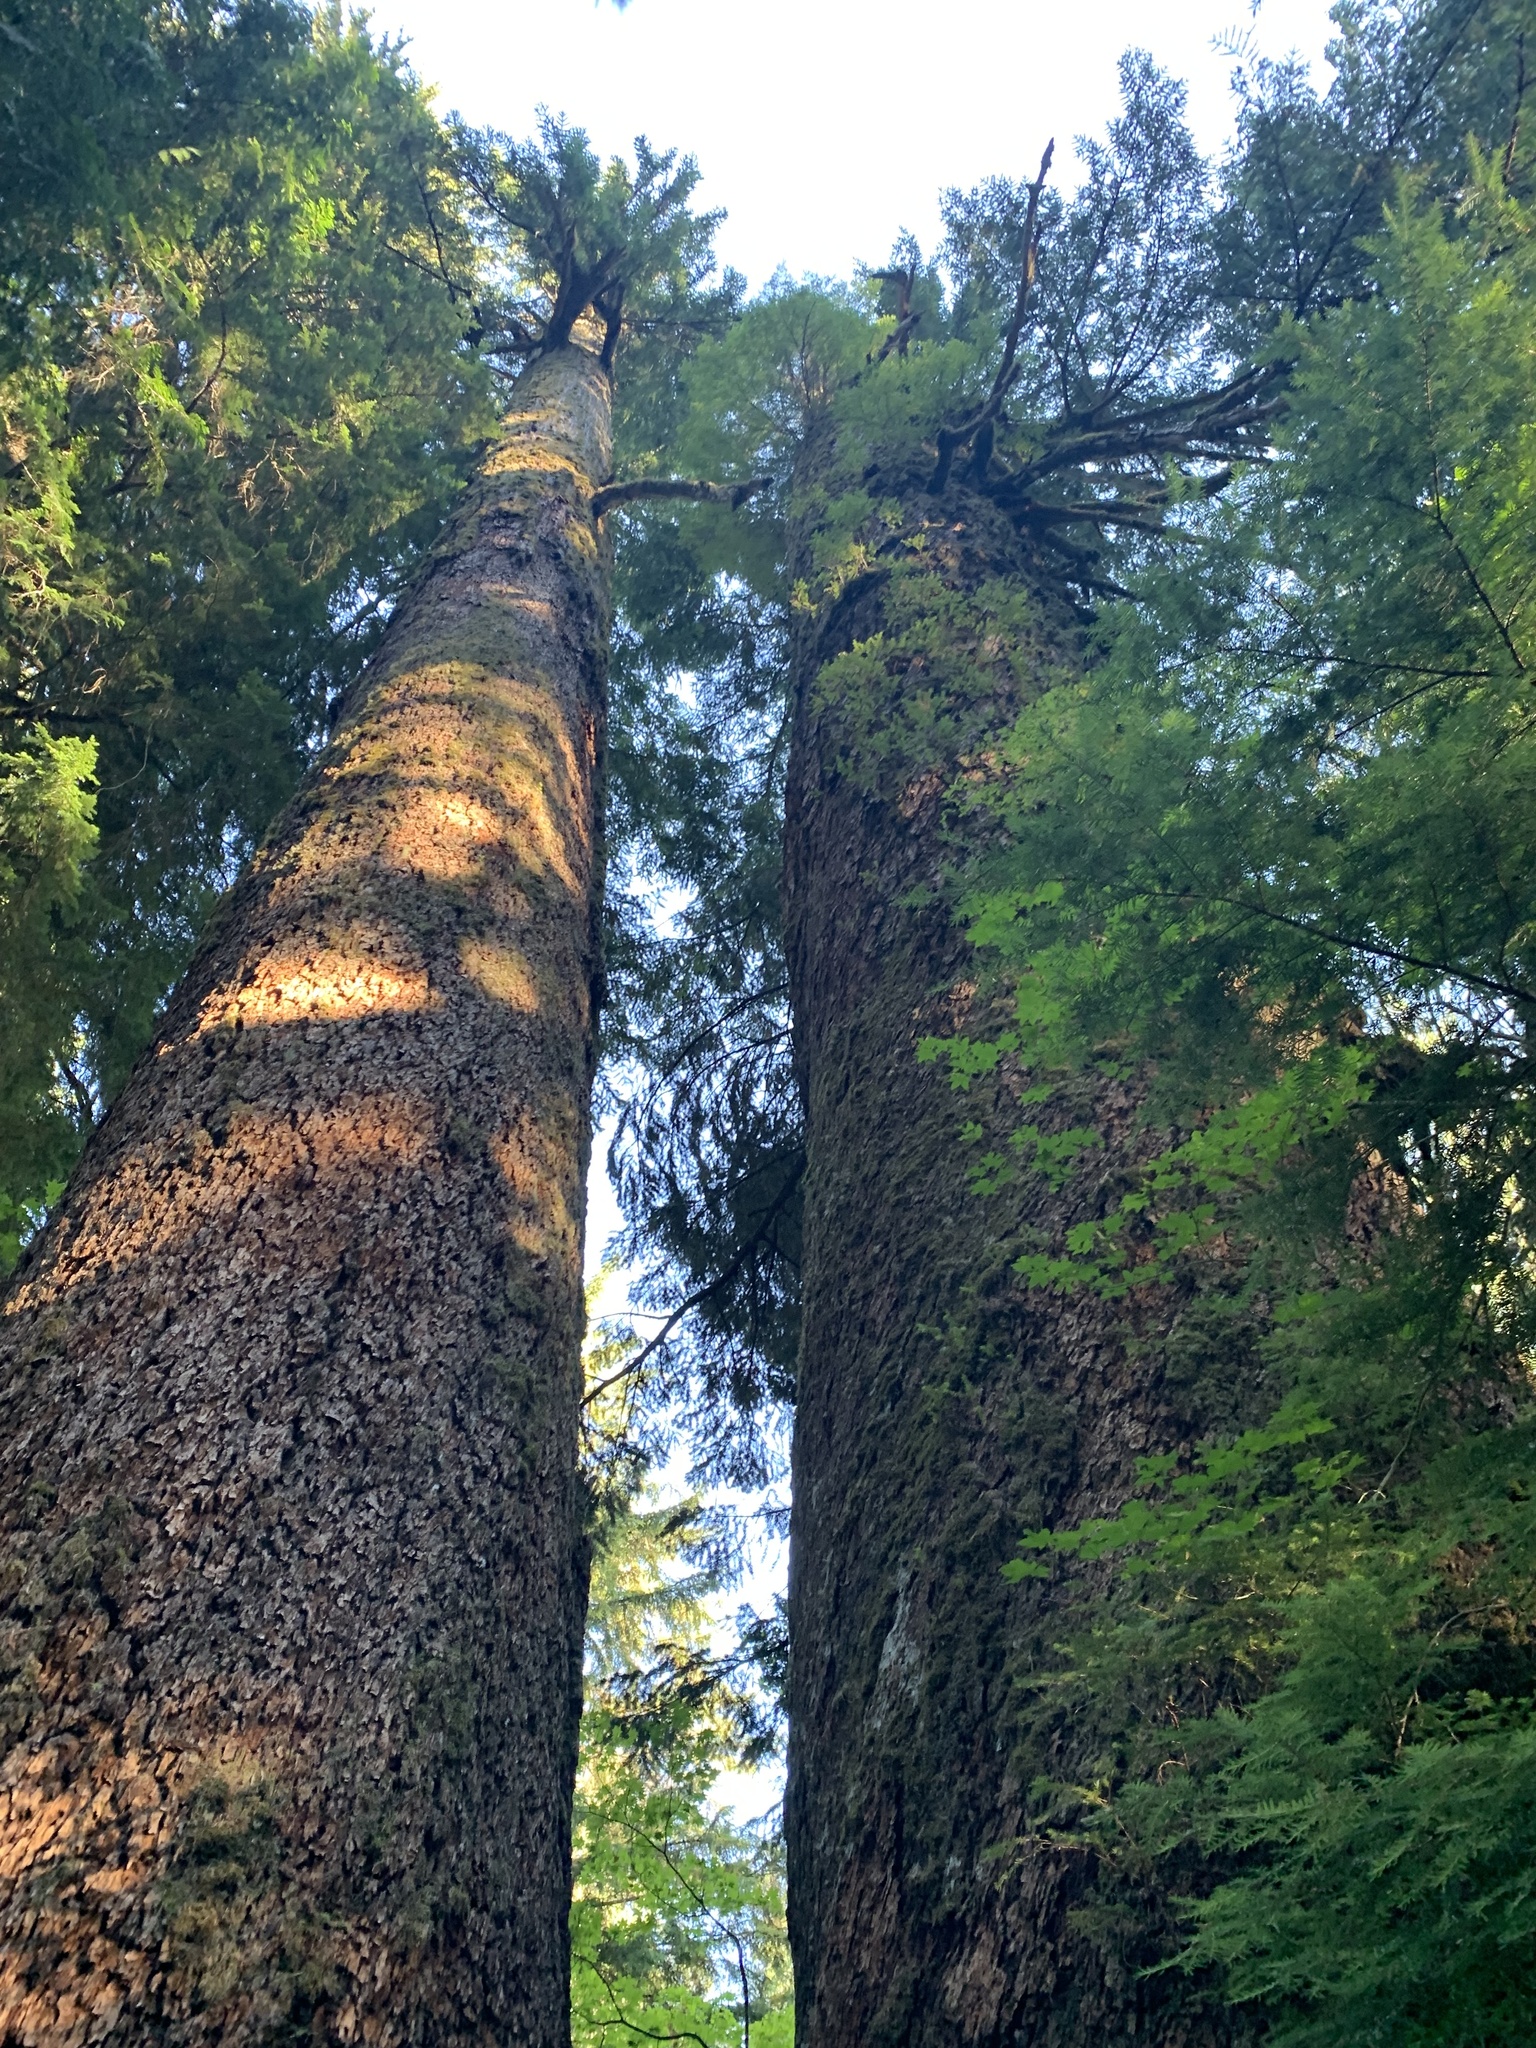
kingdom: Plantae
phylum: Tracheophyta
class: Pinopsida
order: Pinales
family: Pinaceae
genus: Pseudotsuga
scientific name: Pseudotsuga menziesii
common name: Douglas fir
